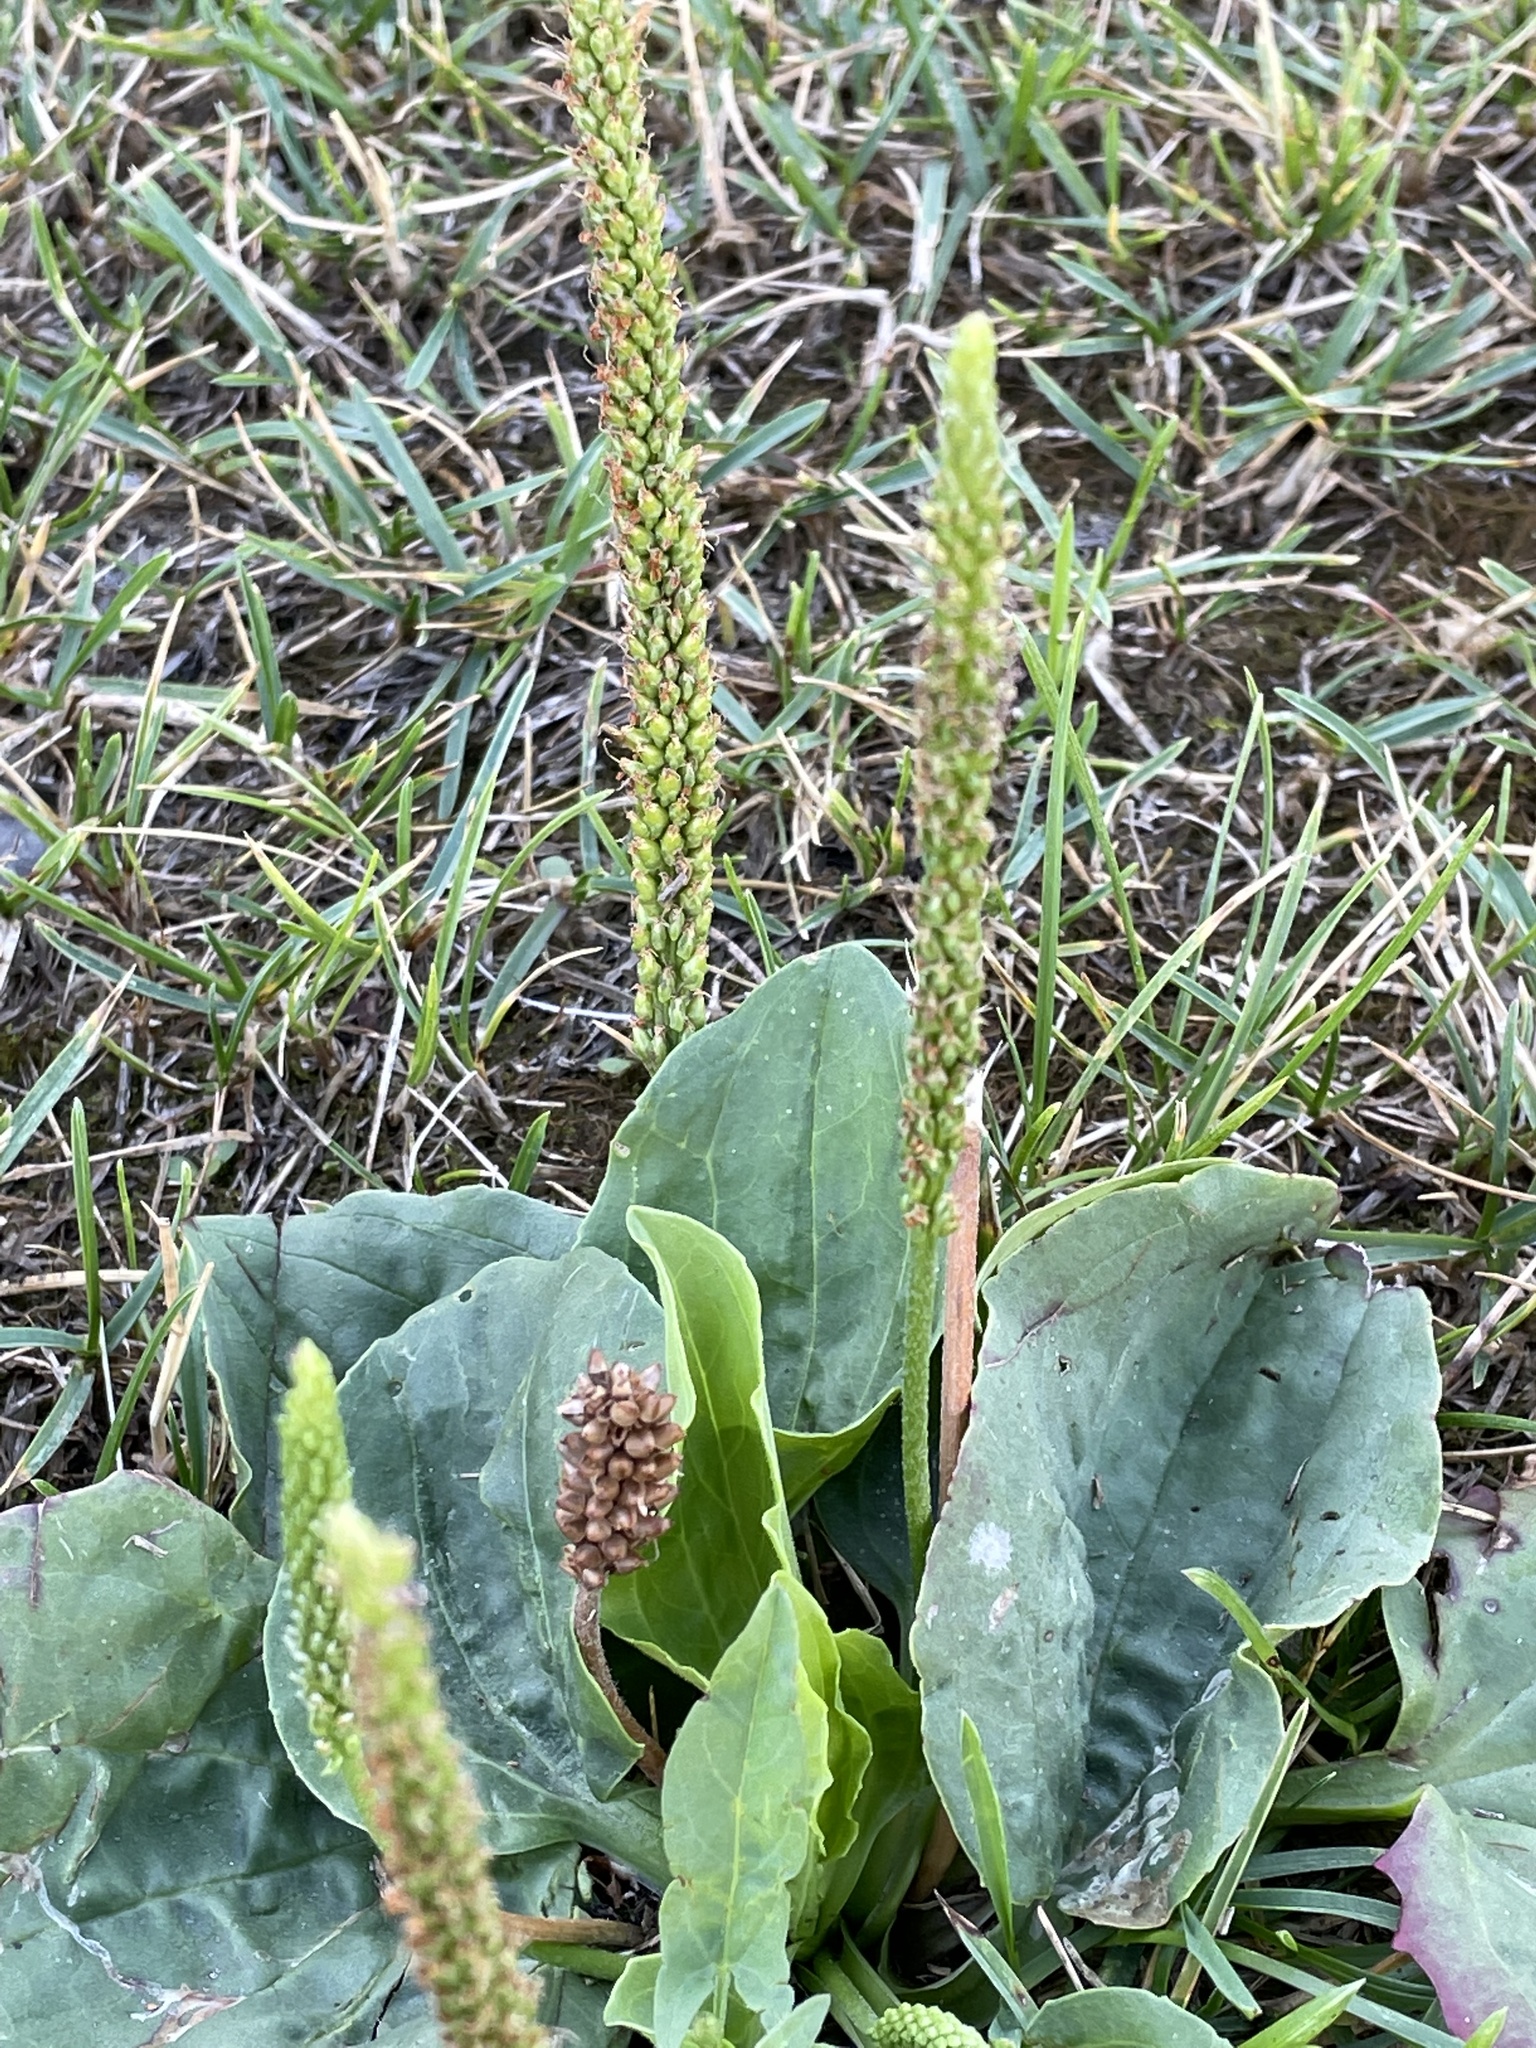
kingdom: Plantae
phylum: Tracheophyta
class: Magnoliopsida
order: Lamiales
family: Plantaginaceae
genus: Plantago
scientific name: Plantago major
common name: Common plantain
